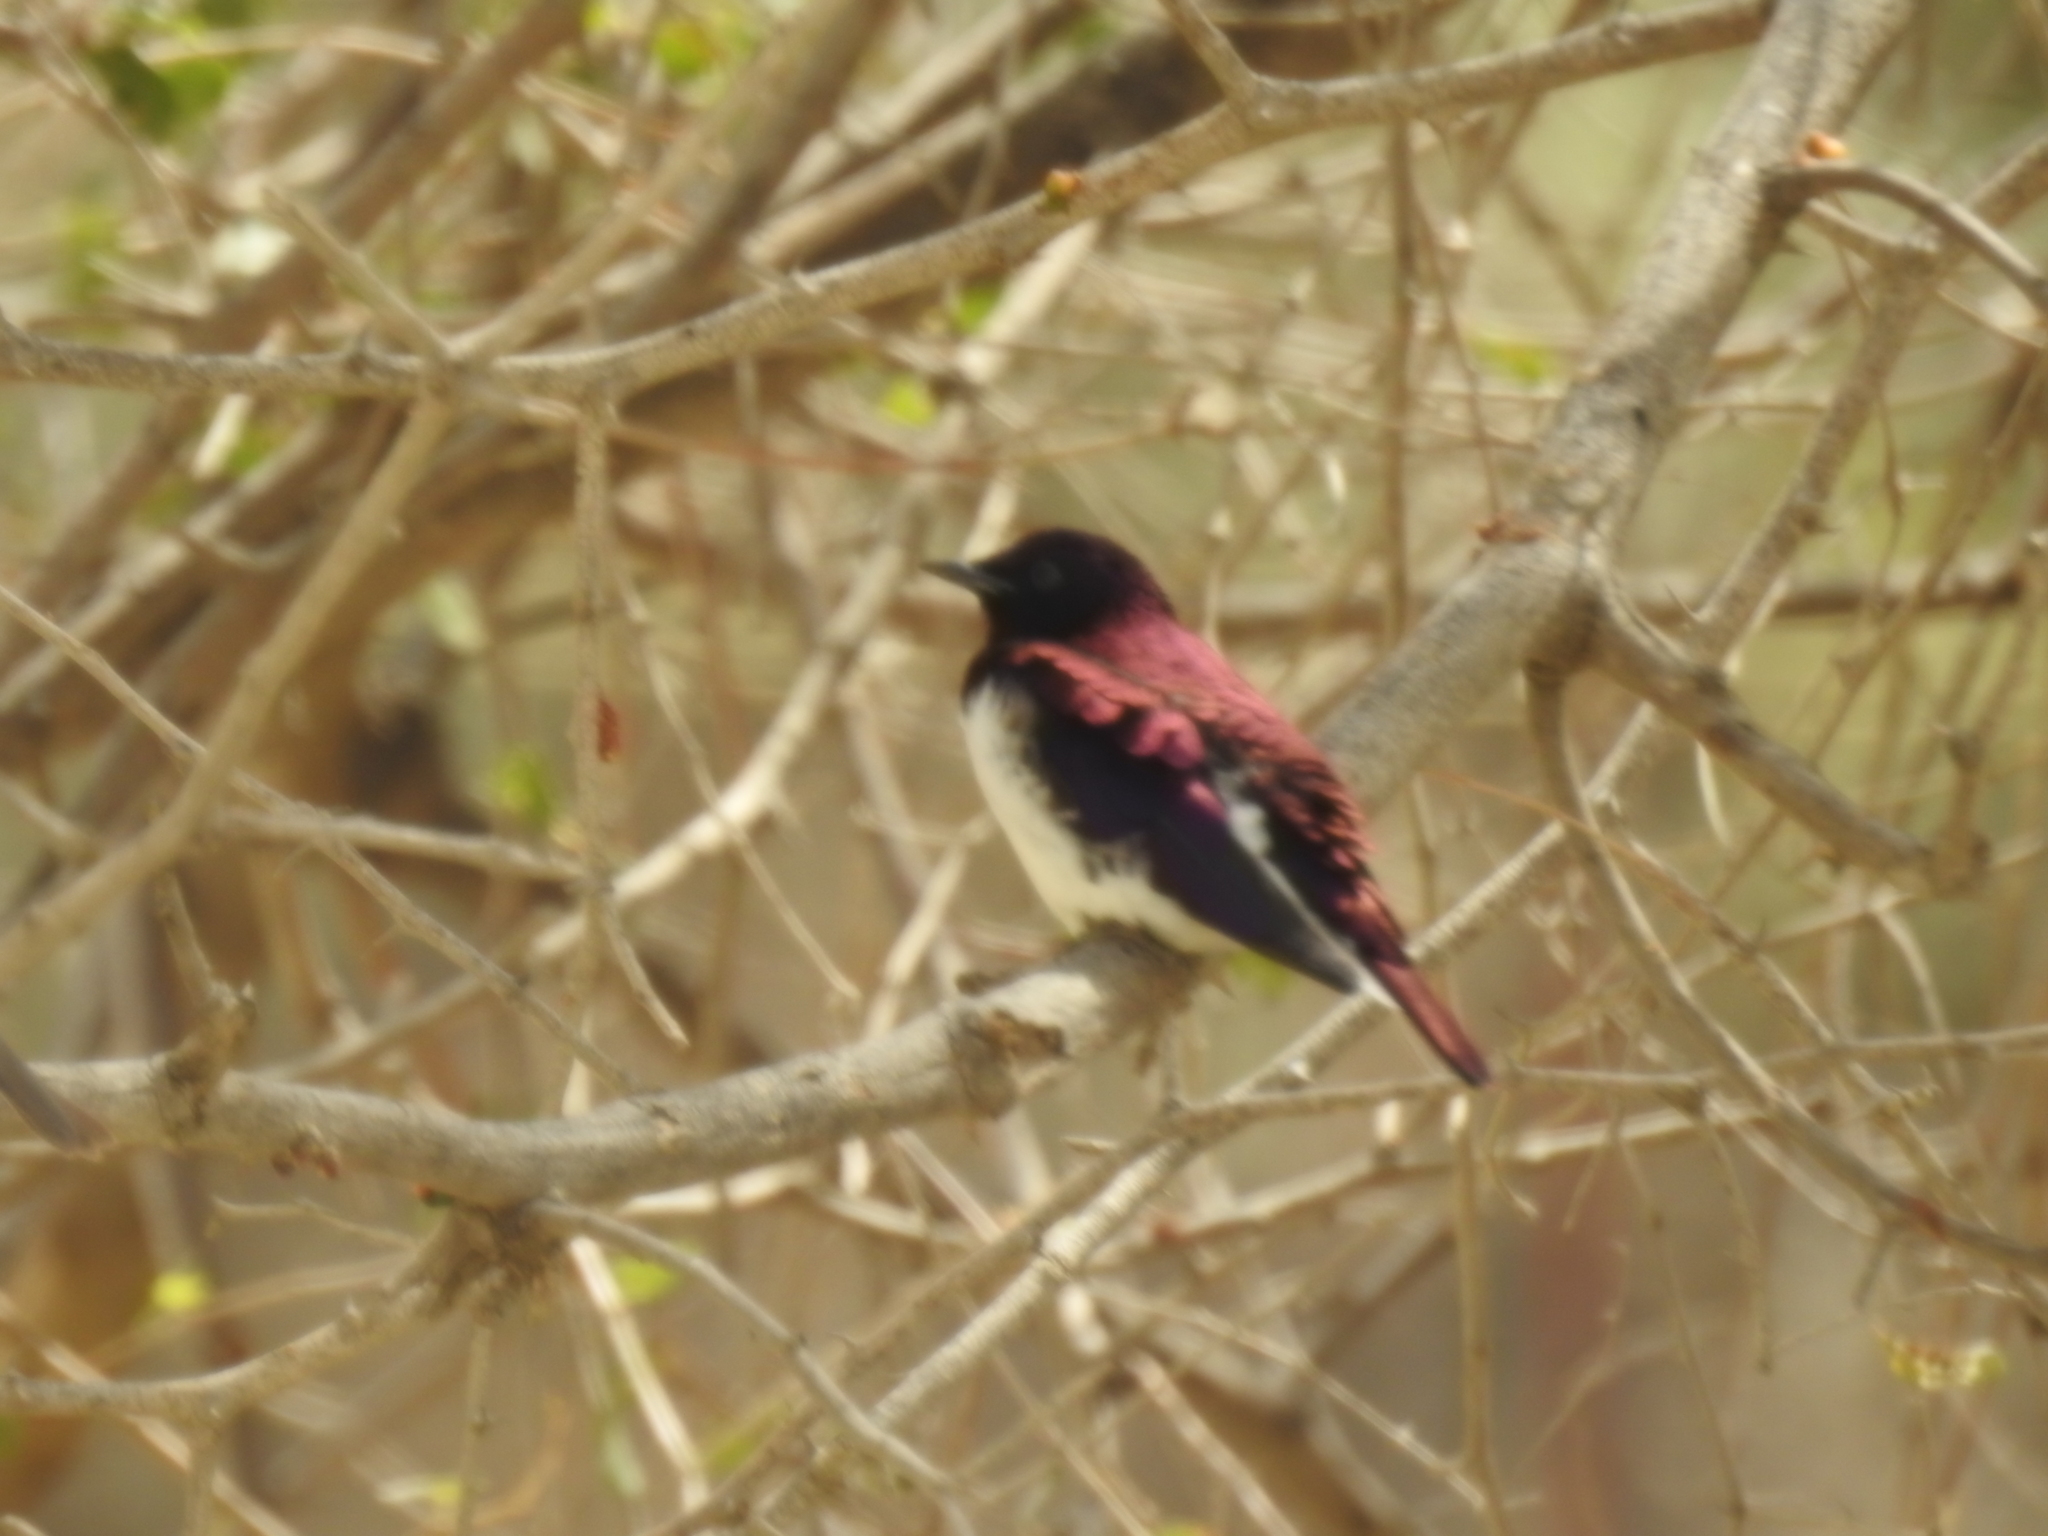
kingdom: Animalia
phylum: Chordata
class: Aves
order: Passeriformes
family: Sturnidae
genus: Cinnyricinclus
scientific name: Cinnyricinclus leucogaster
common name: Violet-backed starling
